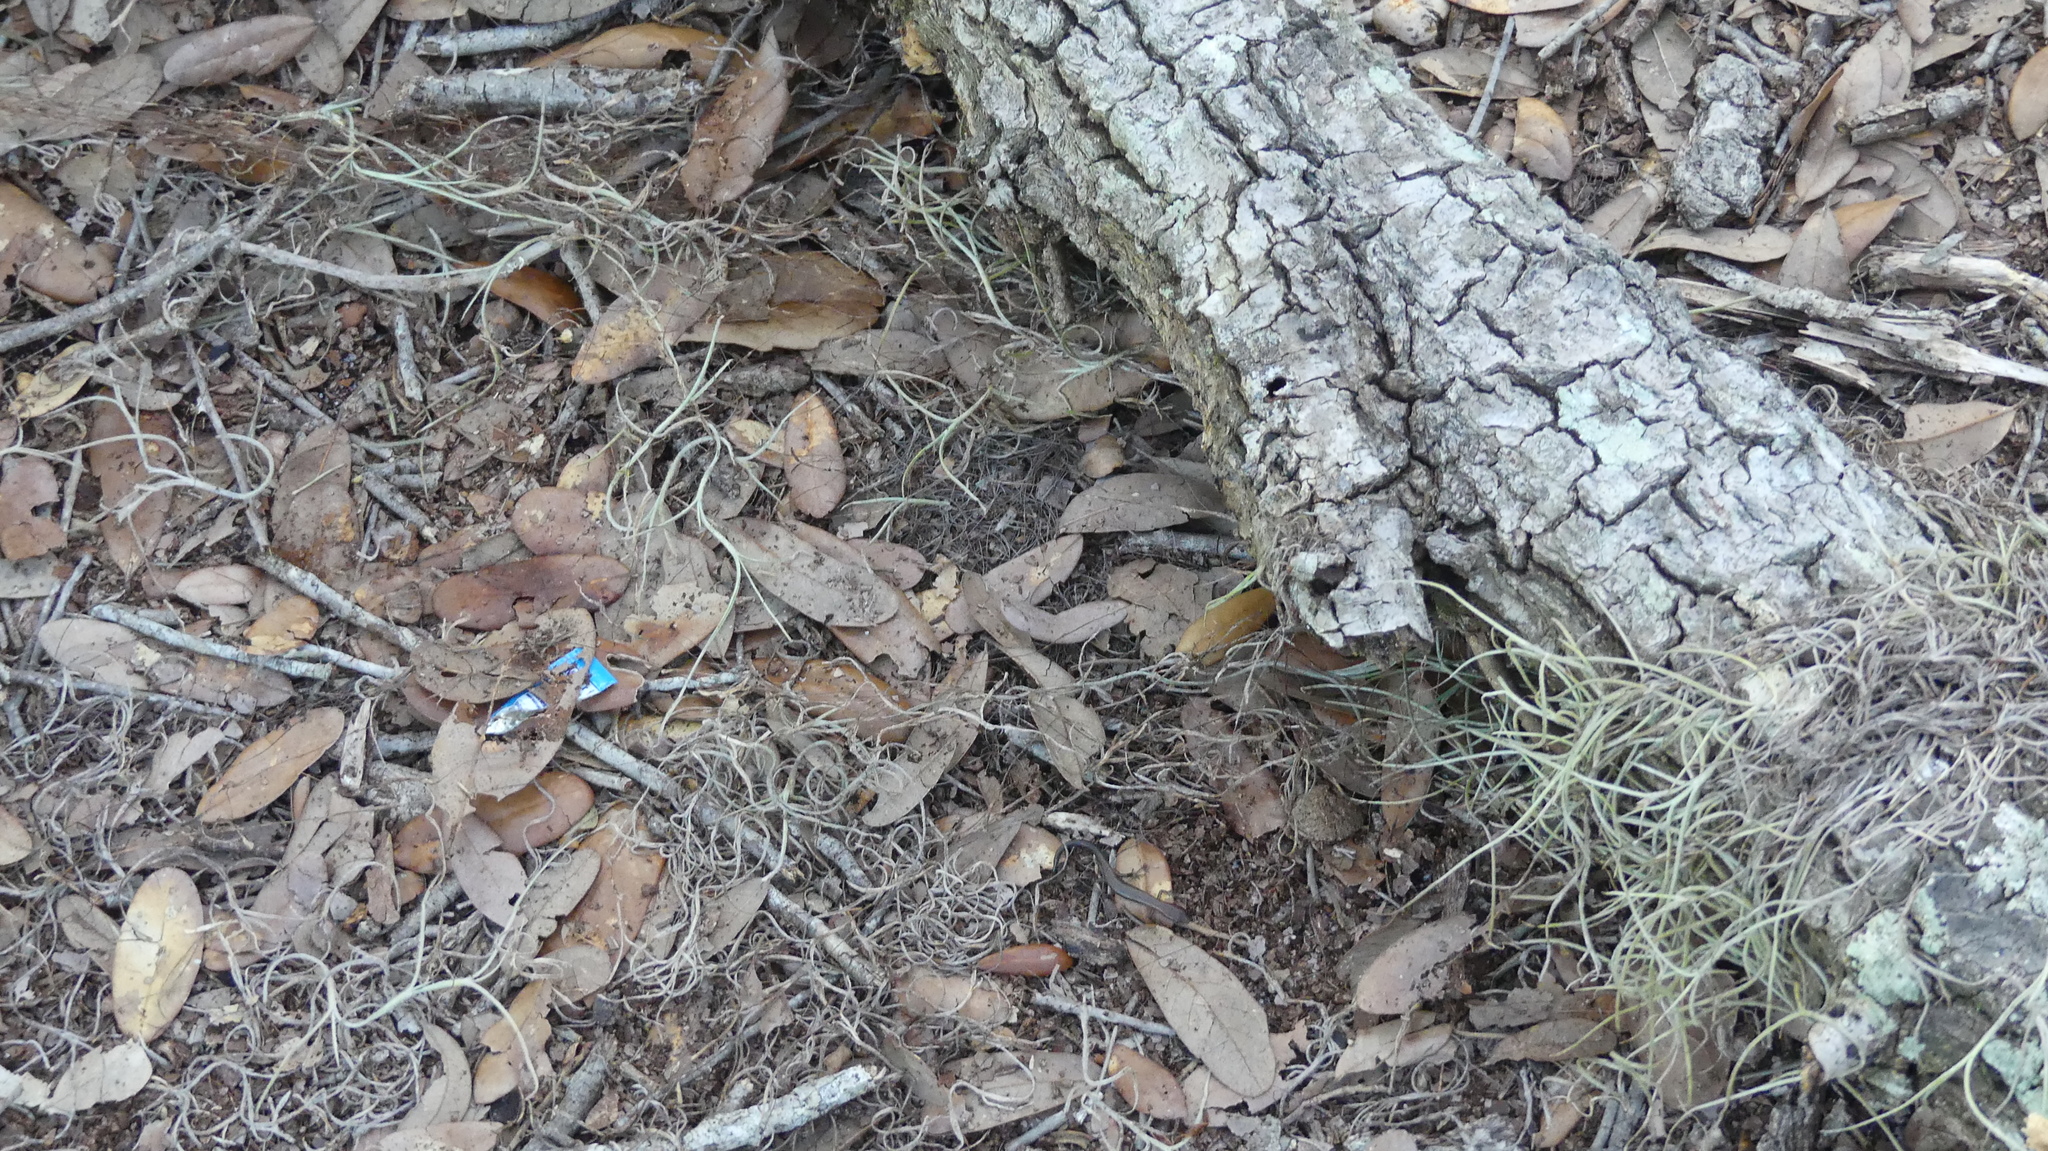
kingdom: Animalia
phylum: Chordata
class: Squamata
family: Scincidae
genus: Scincella
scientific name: Scincella lateralis
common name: Ground skink
